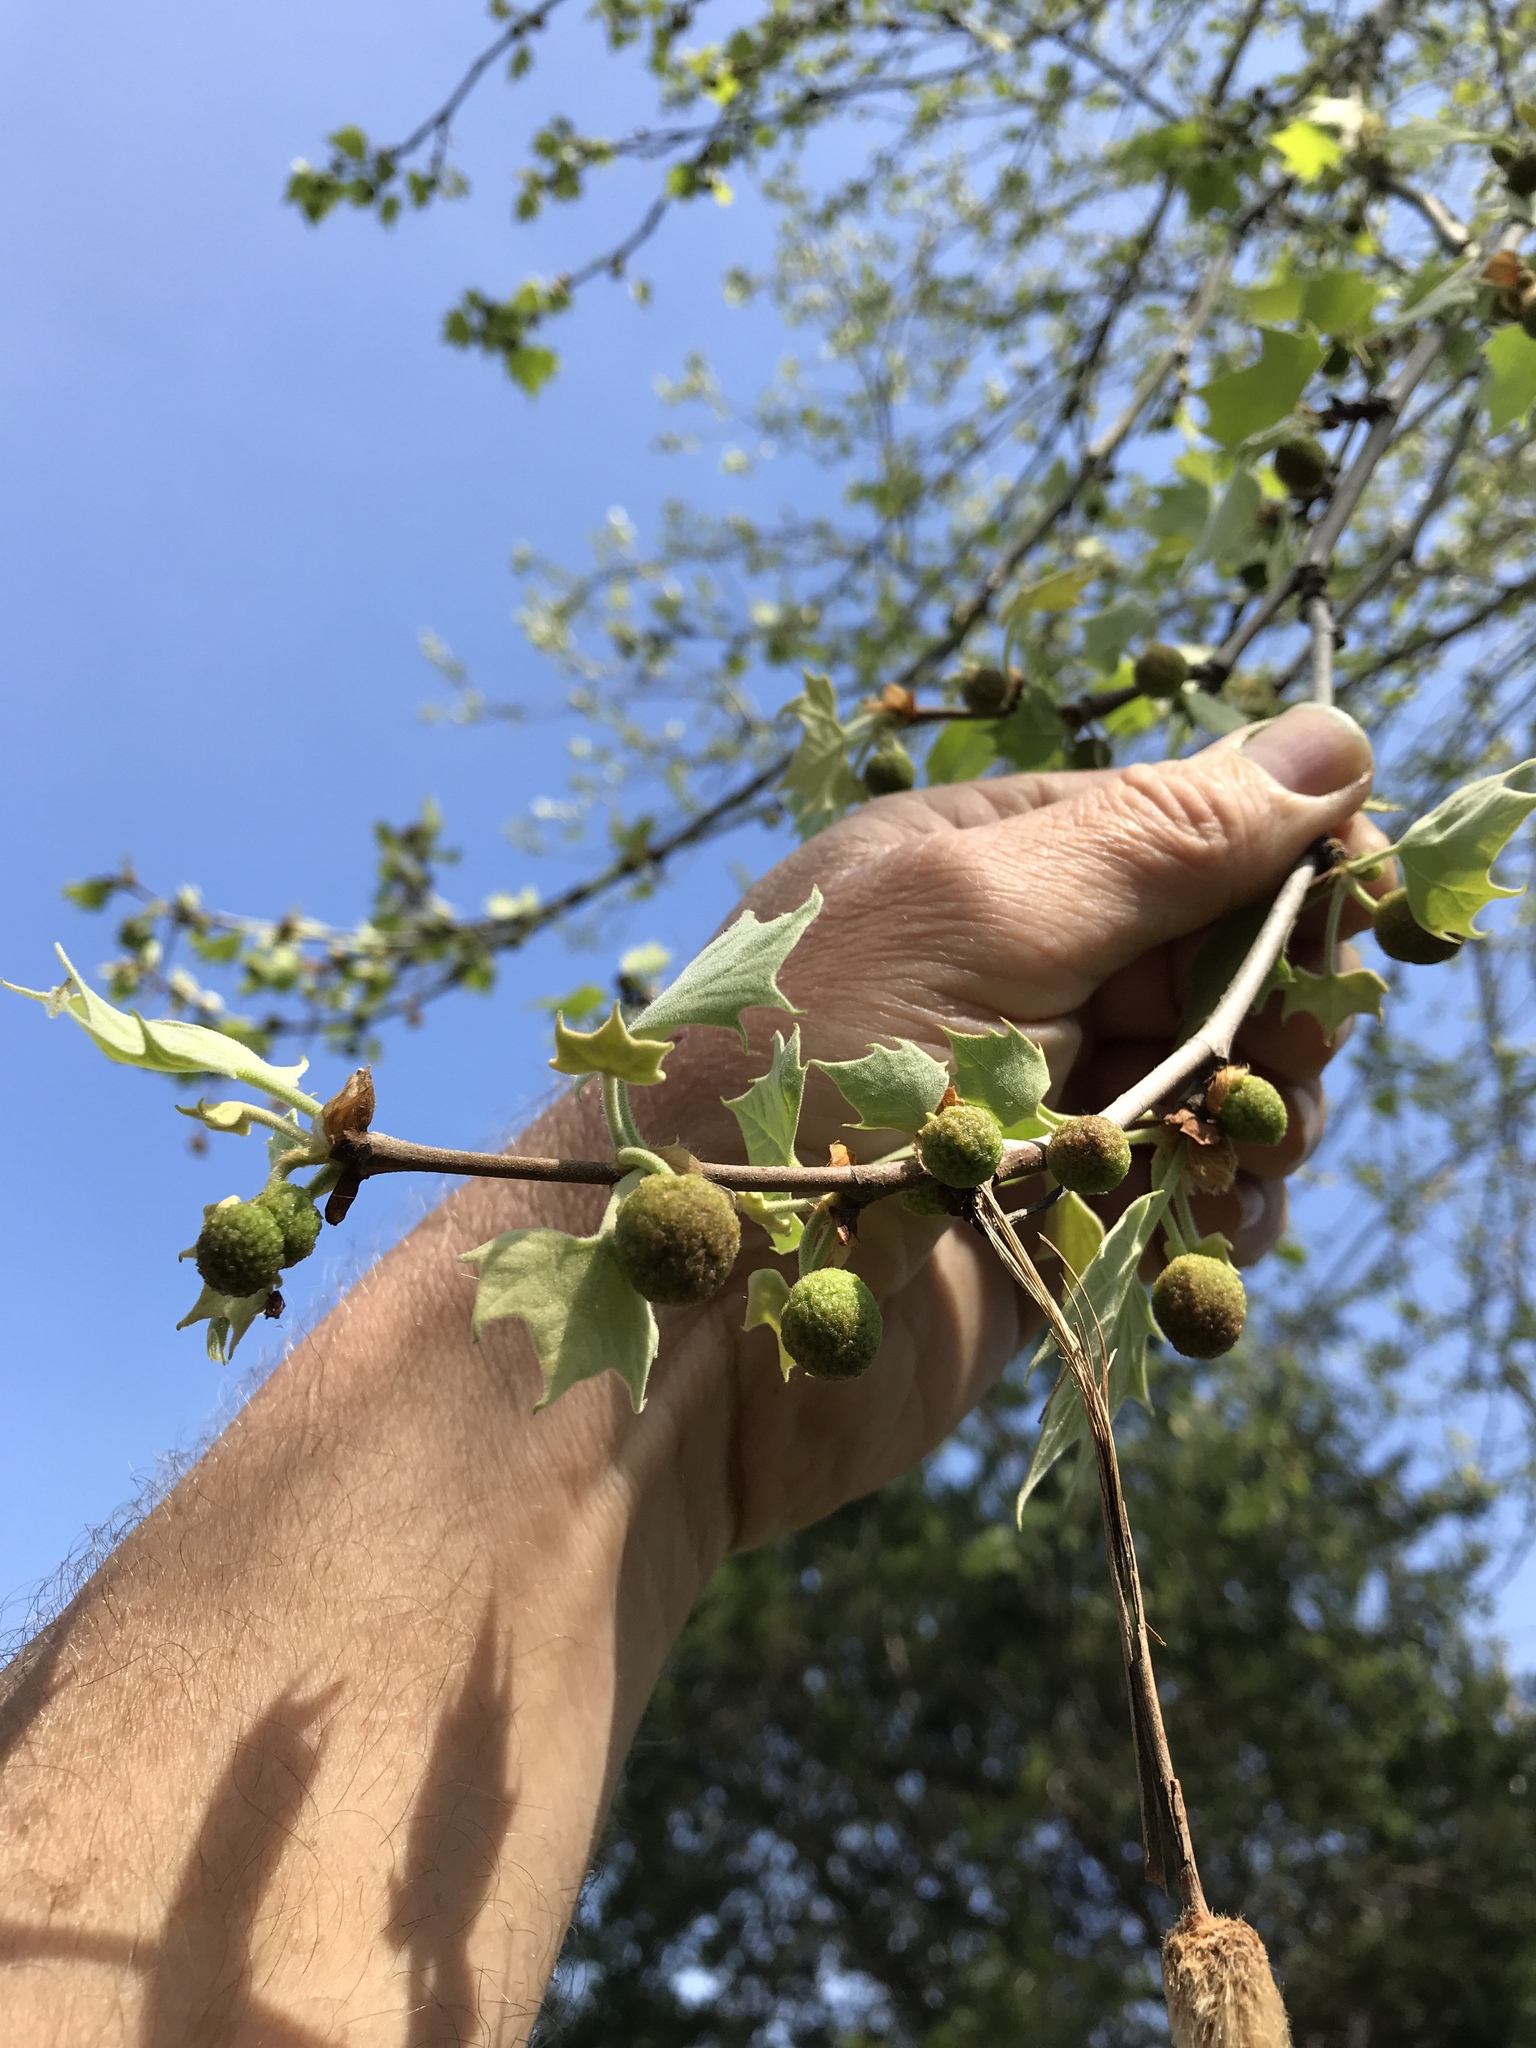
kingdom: Plantae
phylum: Tracheophyta
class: Magnoliopsida
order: Proteales
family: Platanaceae
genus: Platanus
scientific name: Platanus occidentalis
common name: American sycamore
